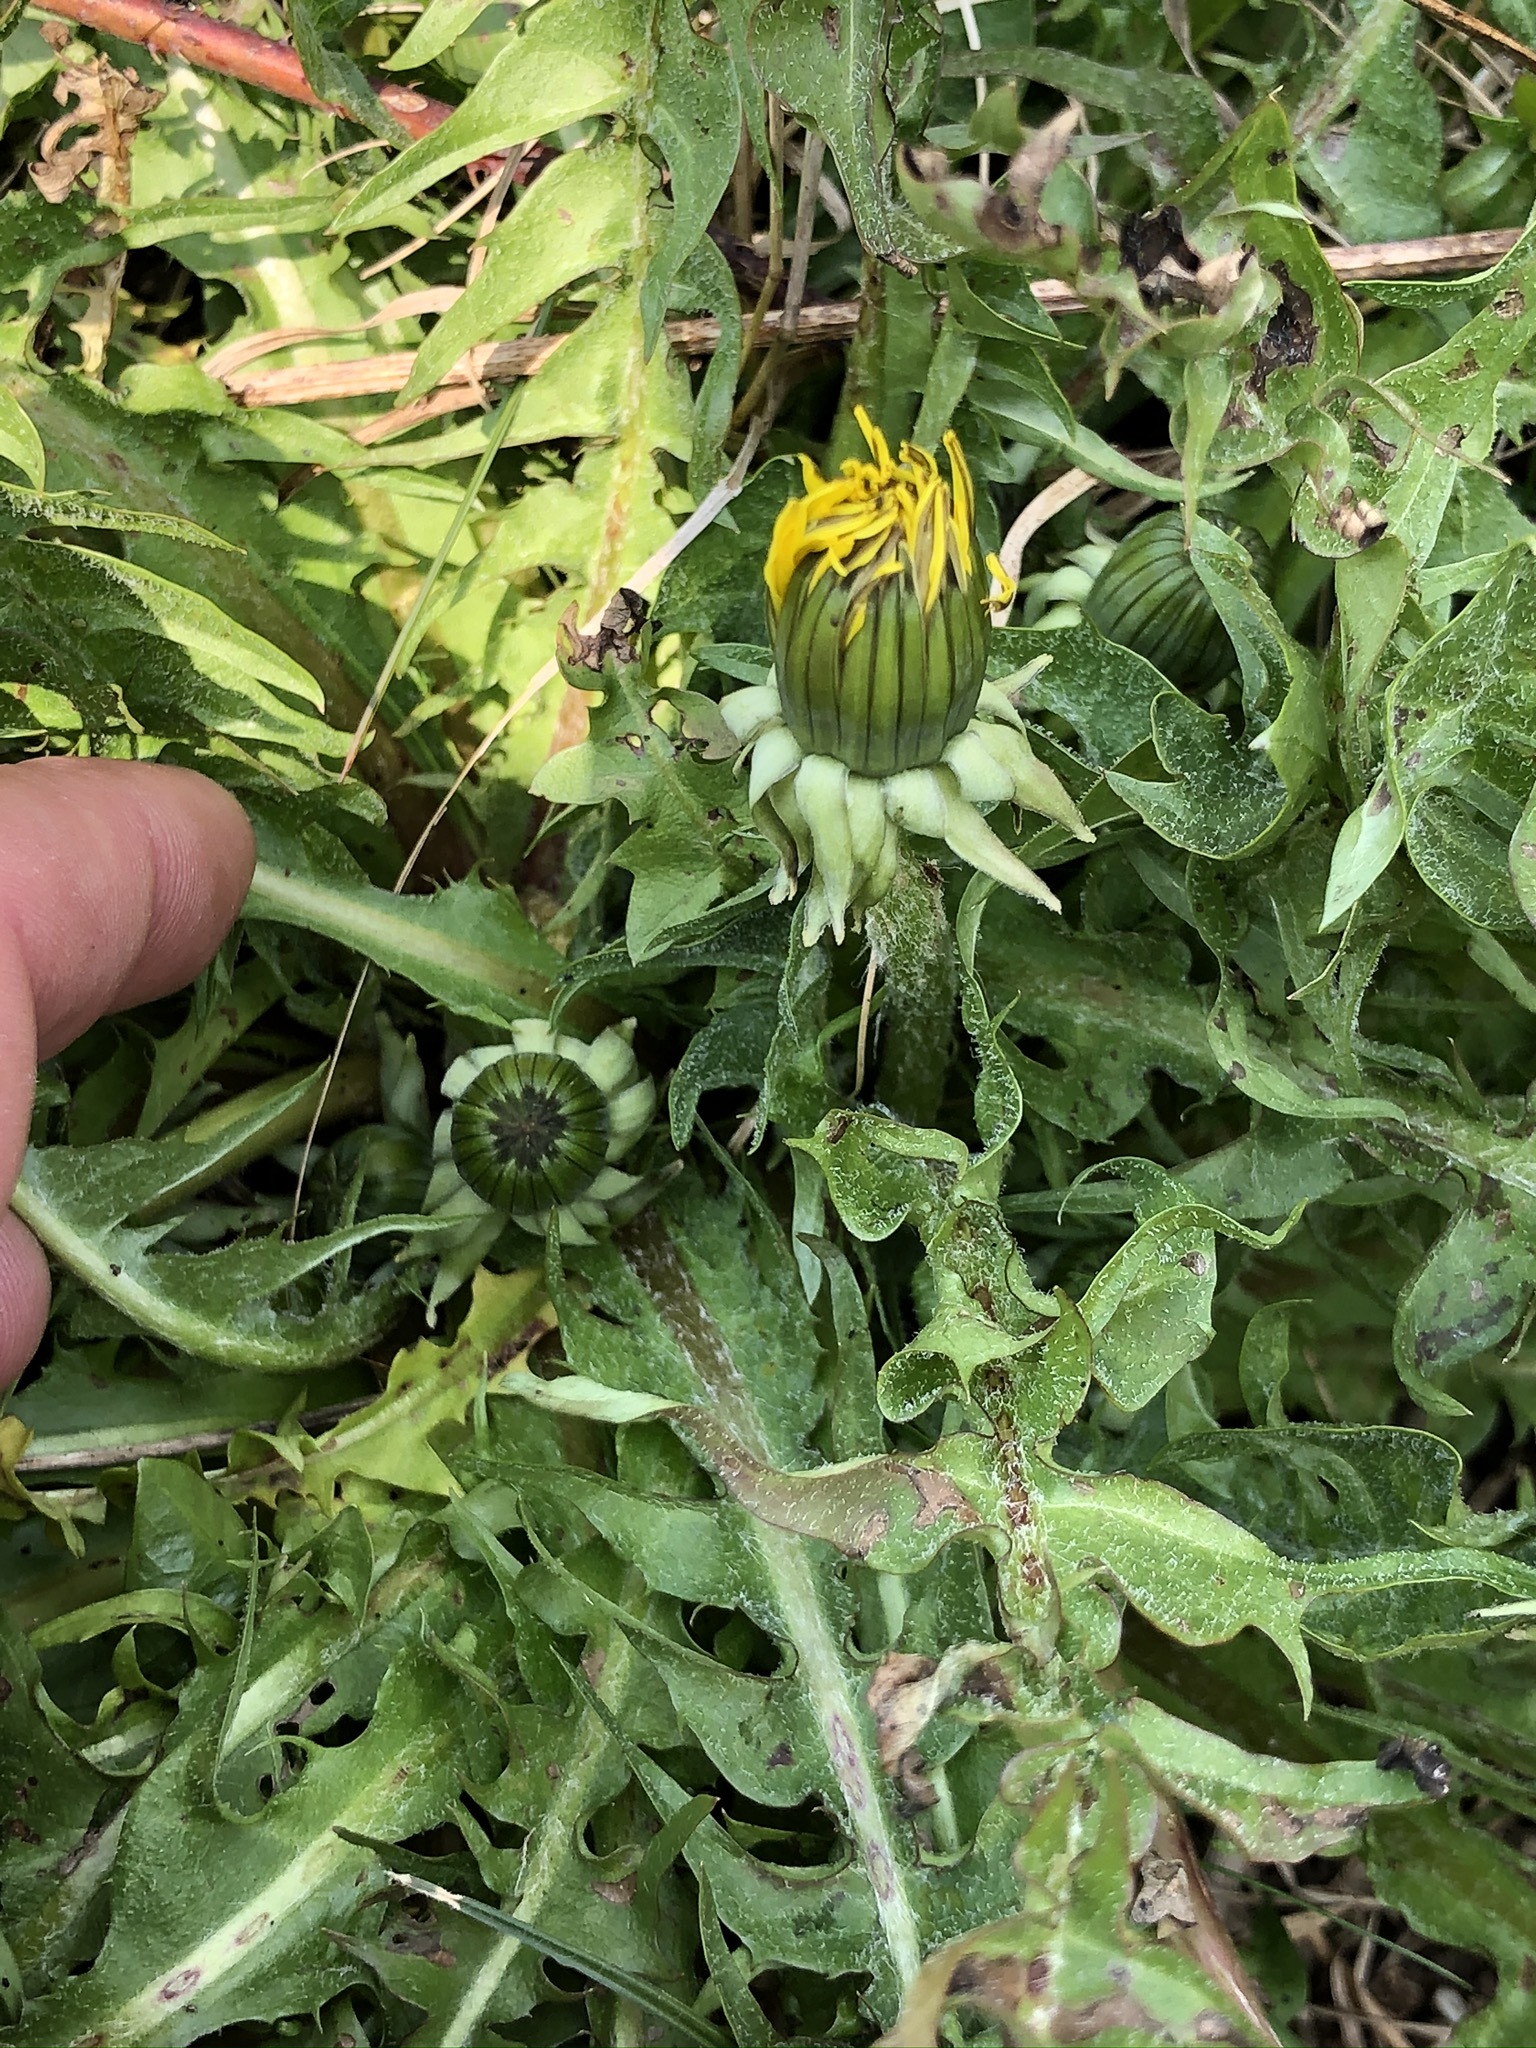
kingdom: Plantae
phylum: Tracheophyta
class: Magnoliopsida
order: Asterales
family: Asteraceae
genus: Taraxacum
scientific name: Taraxacum
